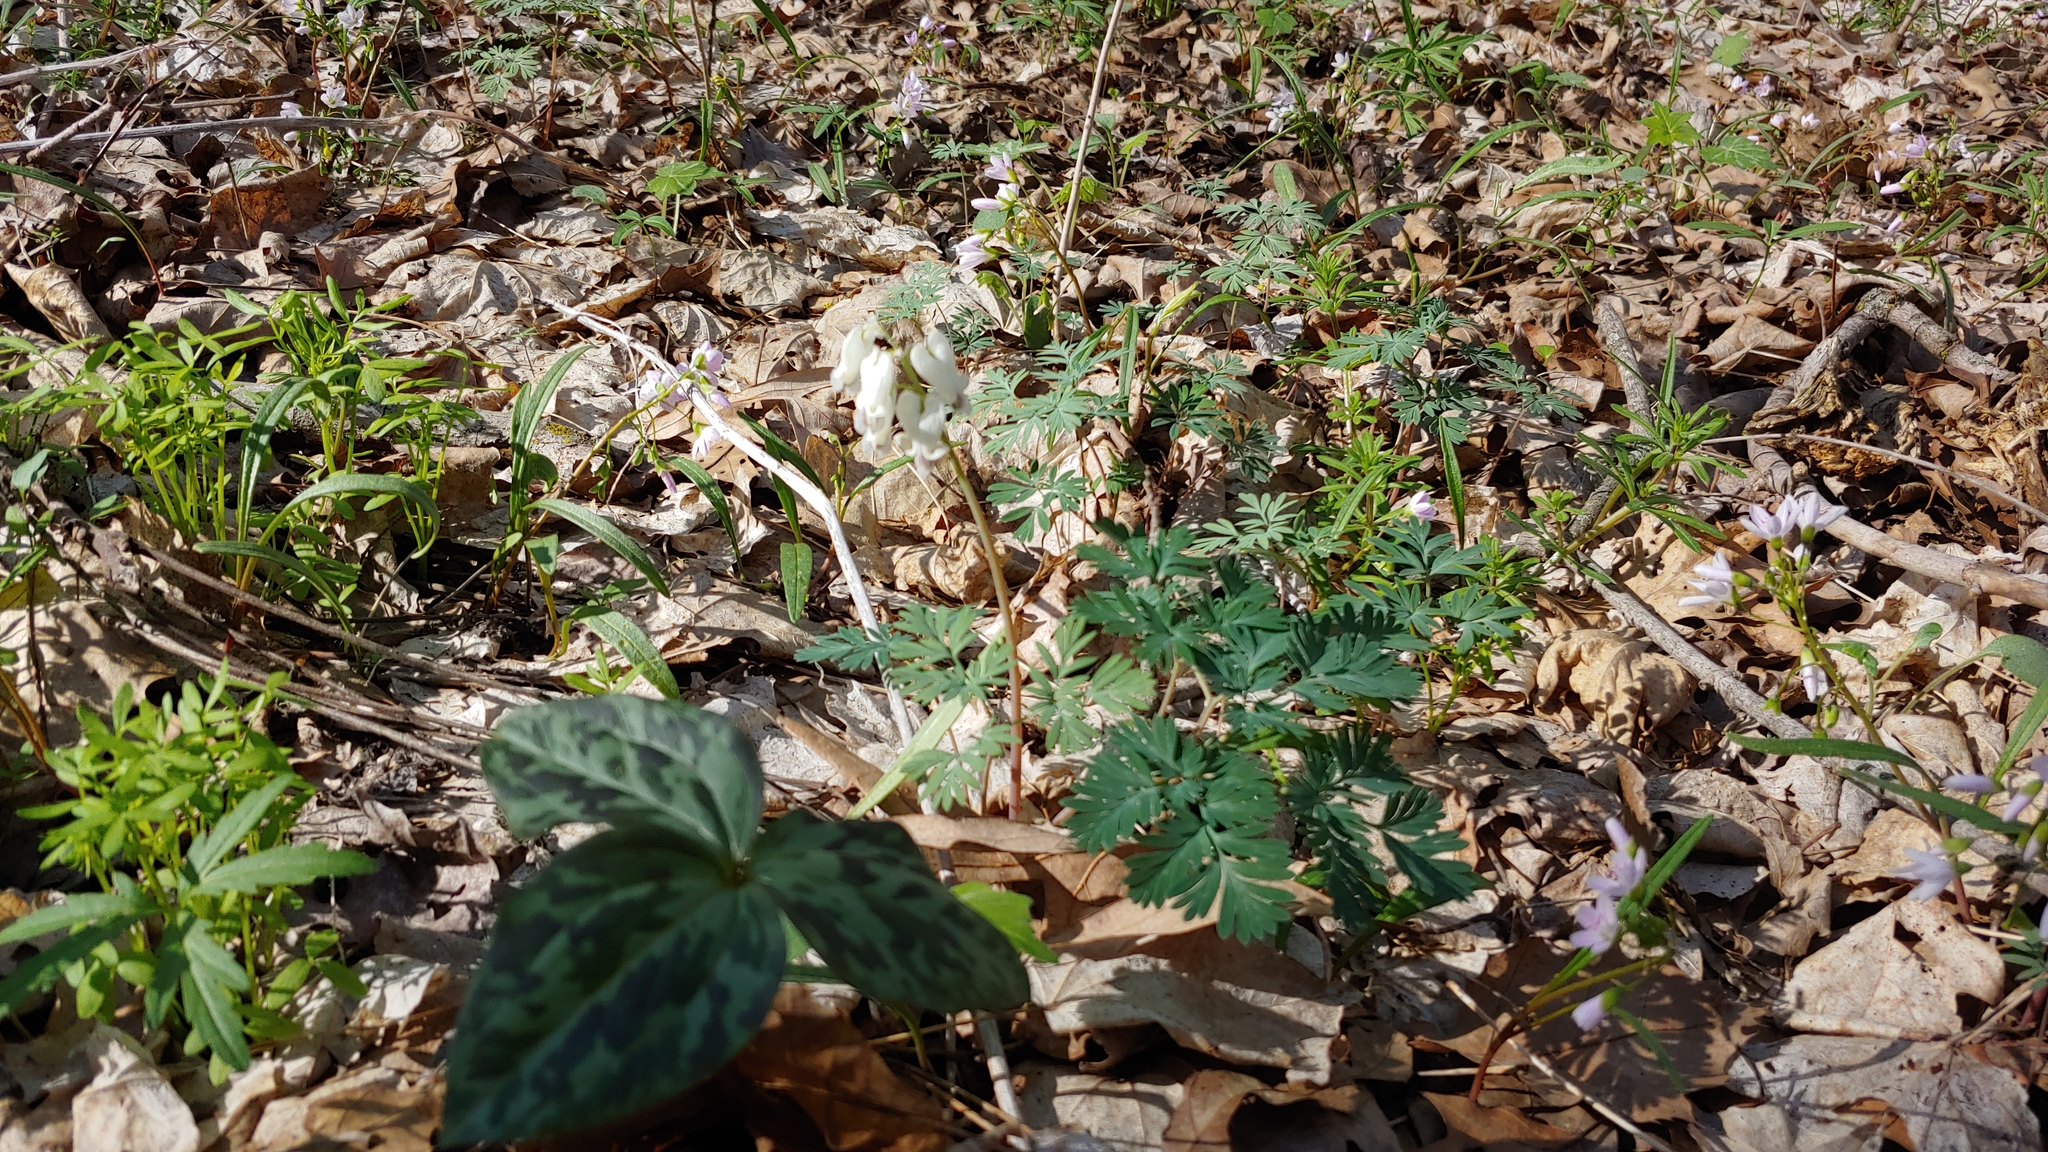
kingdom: Plantae
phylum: Tracheophyta
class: Magnoliopsida
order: Ranunculales
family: Papaveraceae
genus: Dicentra
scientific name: Dicentra canadensis
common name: Squirrel-corn
